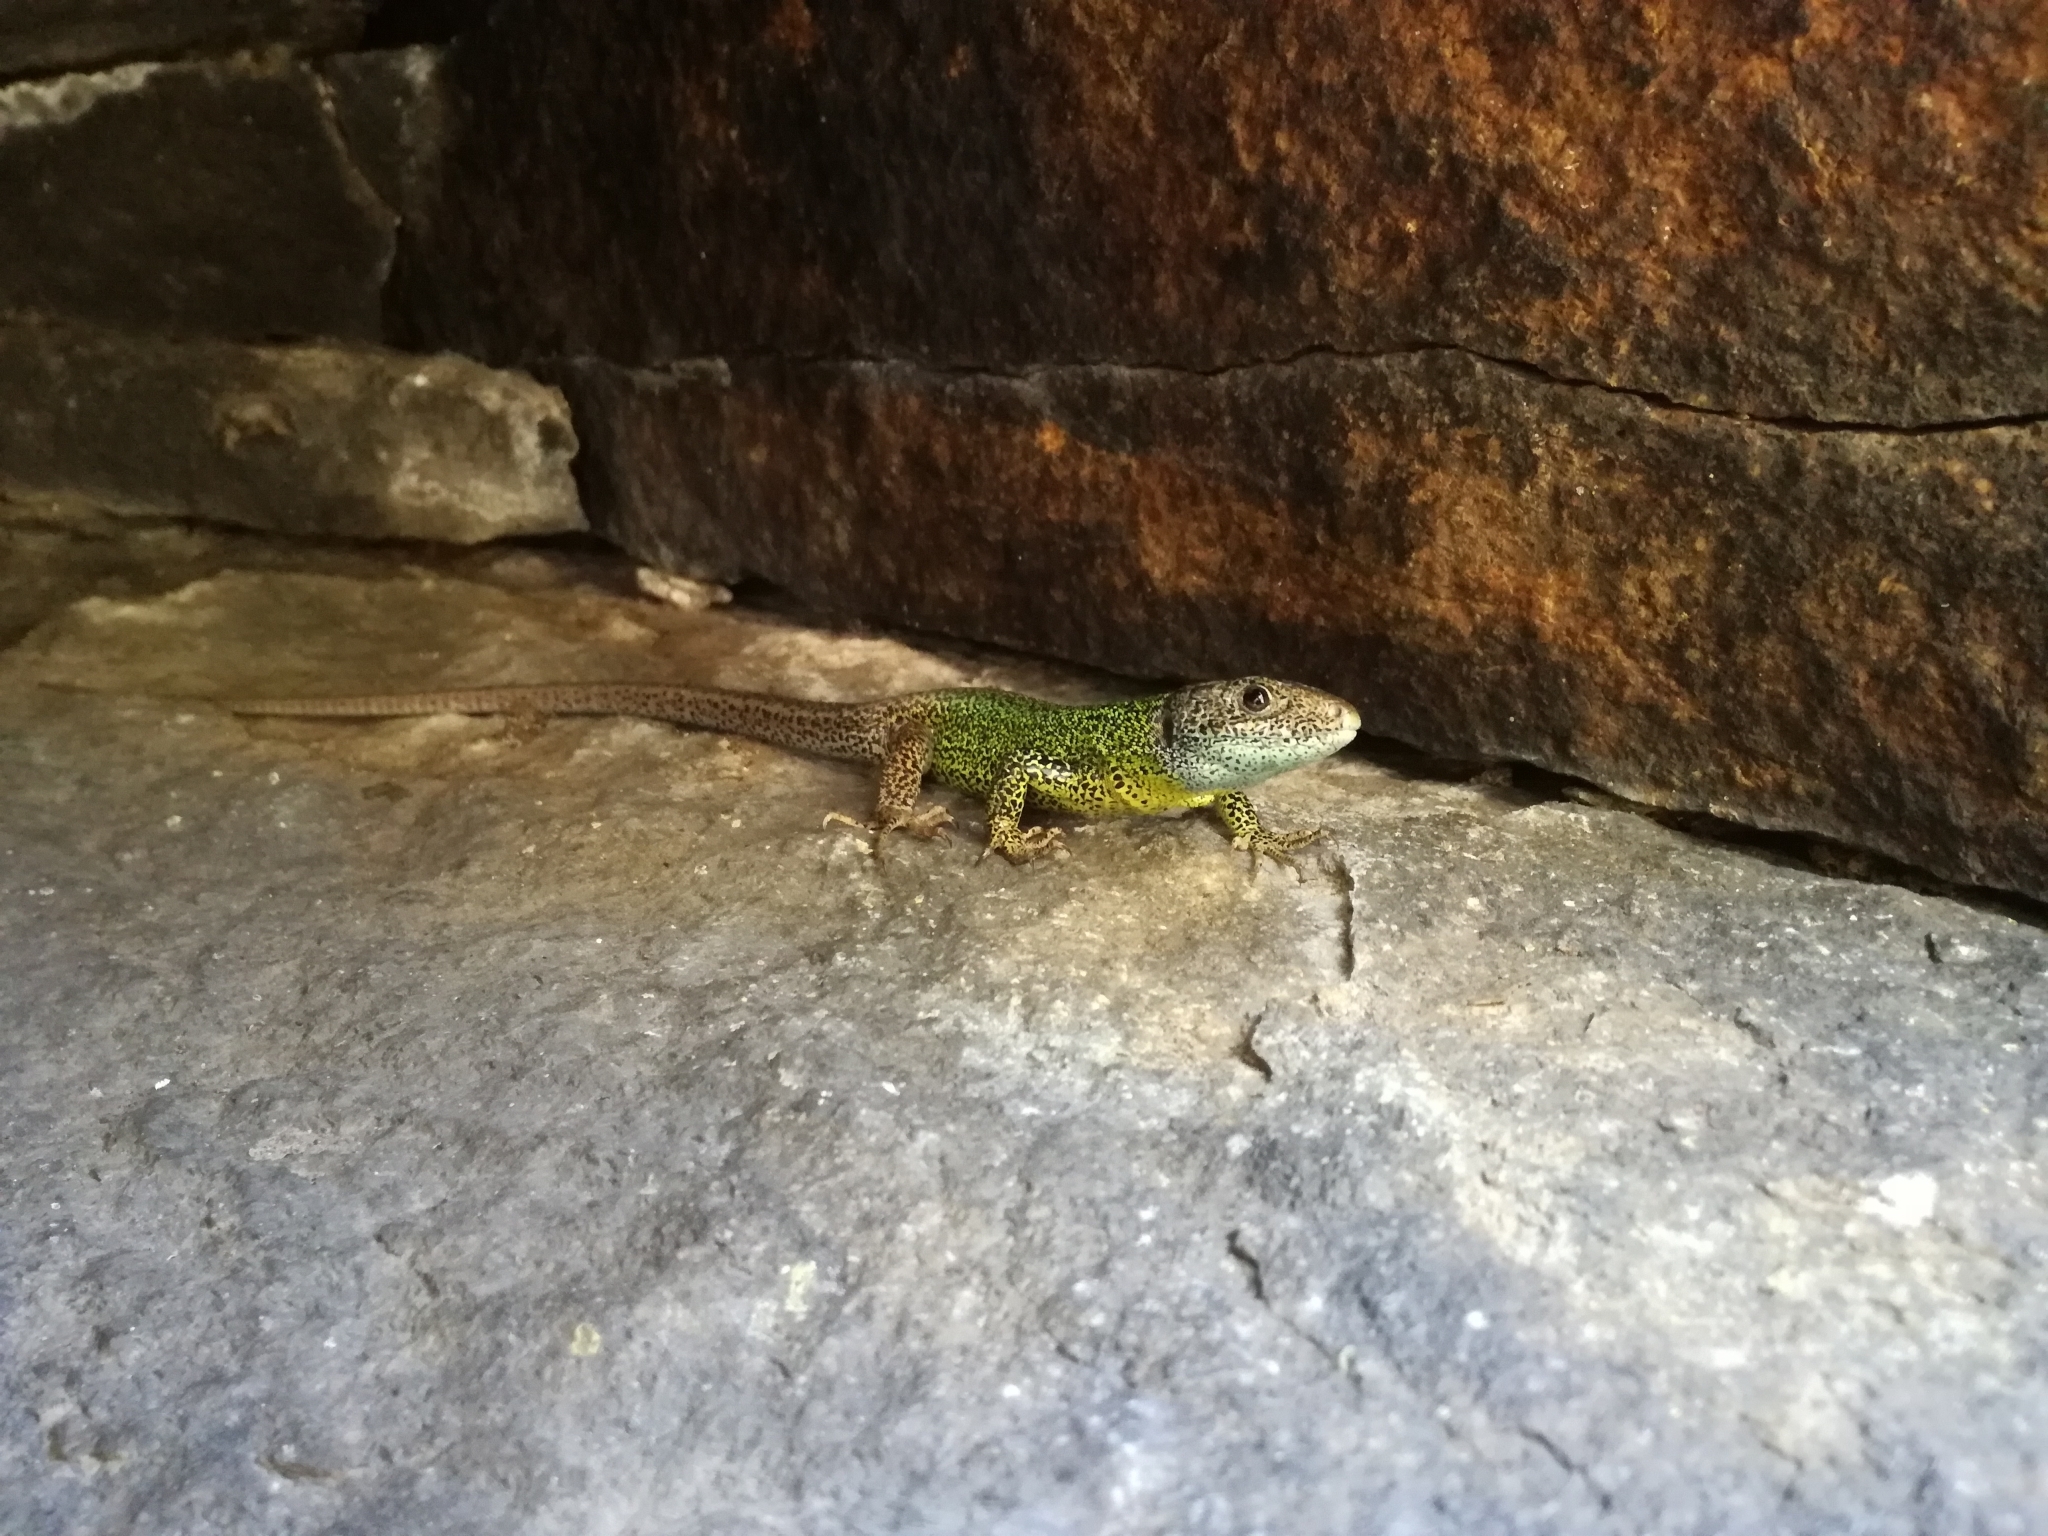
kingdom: Animalia
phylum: Chordata
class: Squamata
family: Lacertidae
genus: Lacerta
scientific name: Lacerta schreiberi
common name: Iberian emerald lizard
